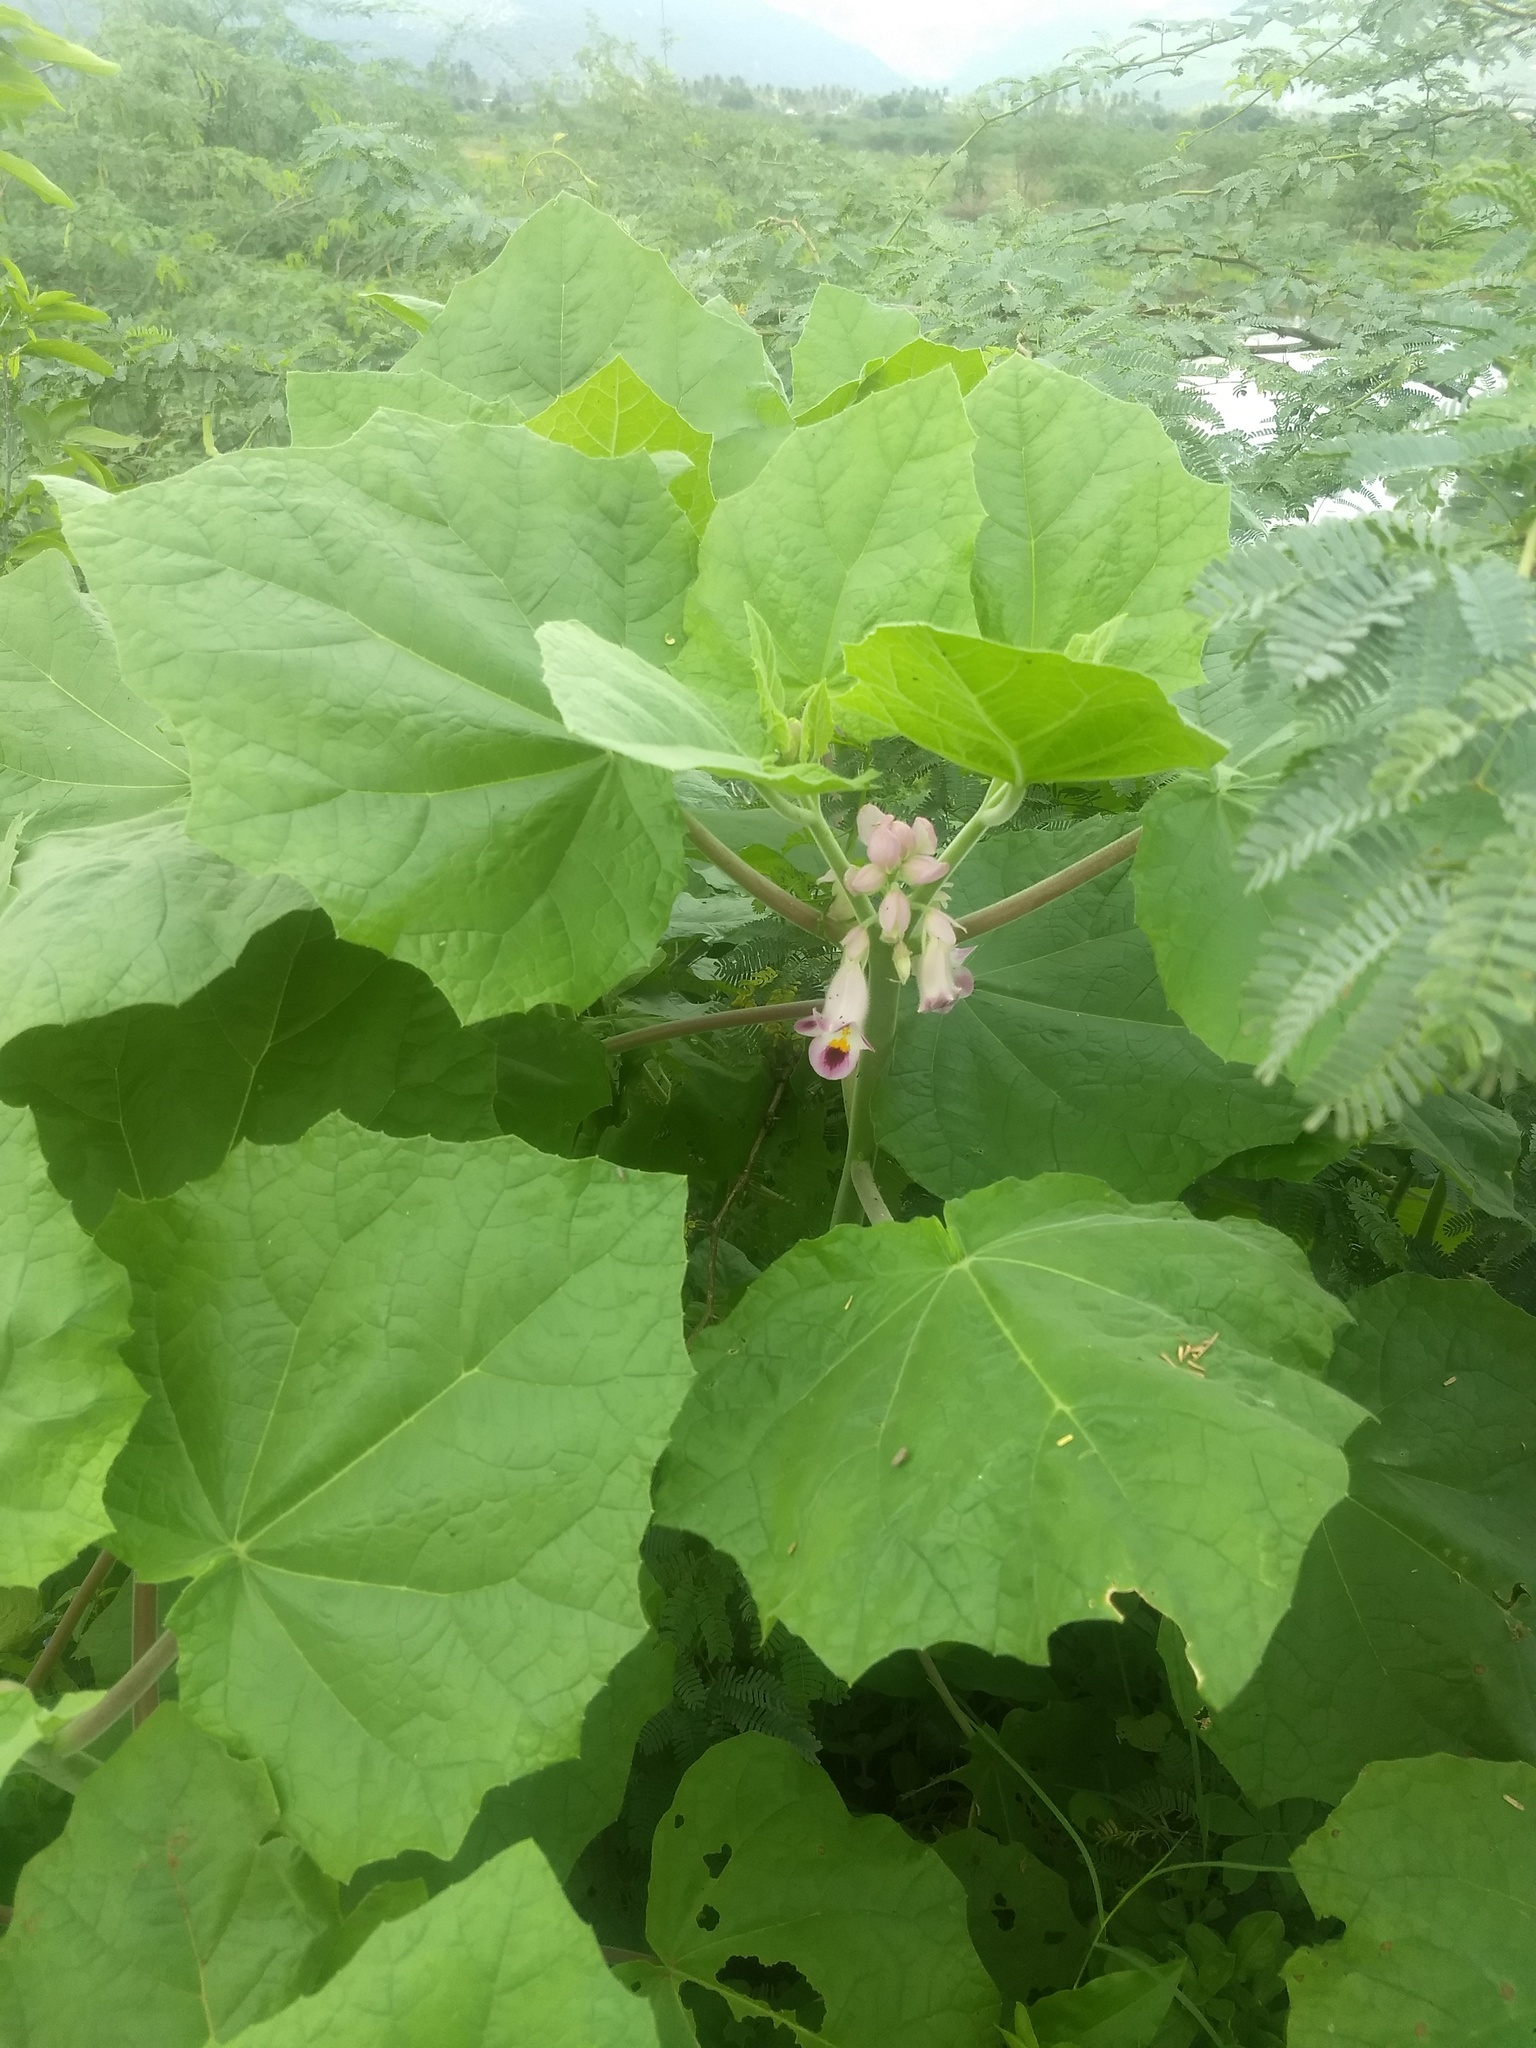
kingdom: Plantae
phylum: Tracheophyta
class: Magnoliopsida
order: Lamiales
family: Martyniaceae
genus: Martynia
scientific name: Martynia annua
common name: Tiger's-claw
